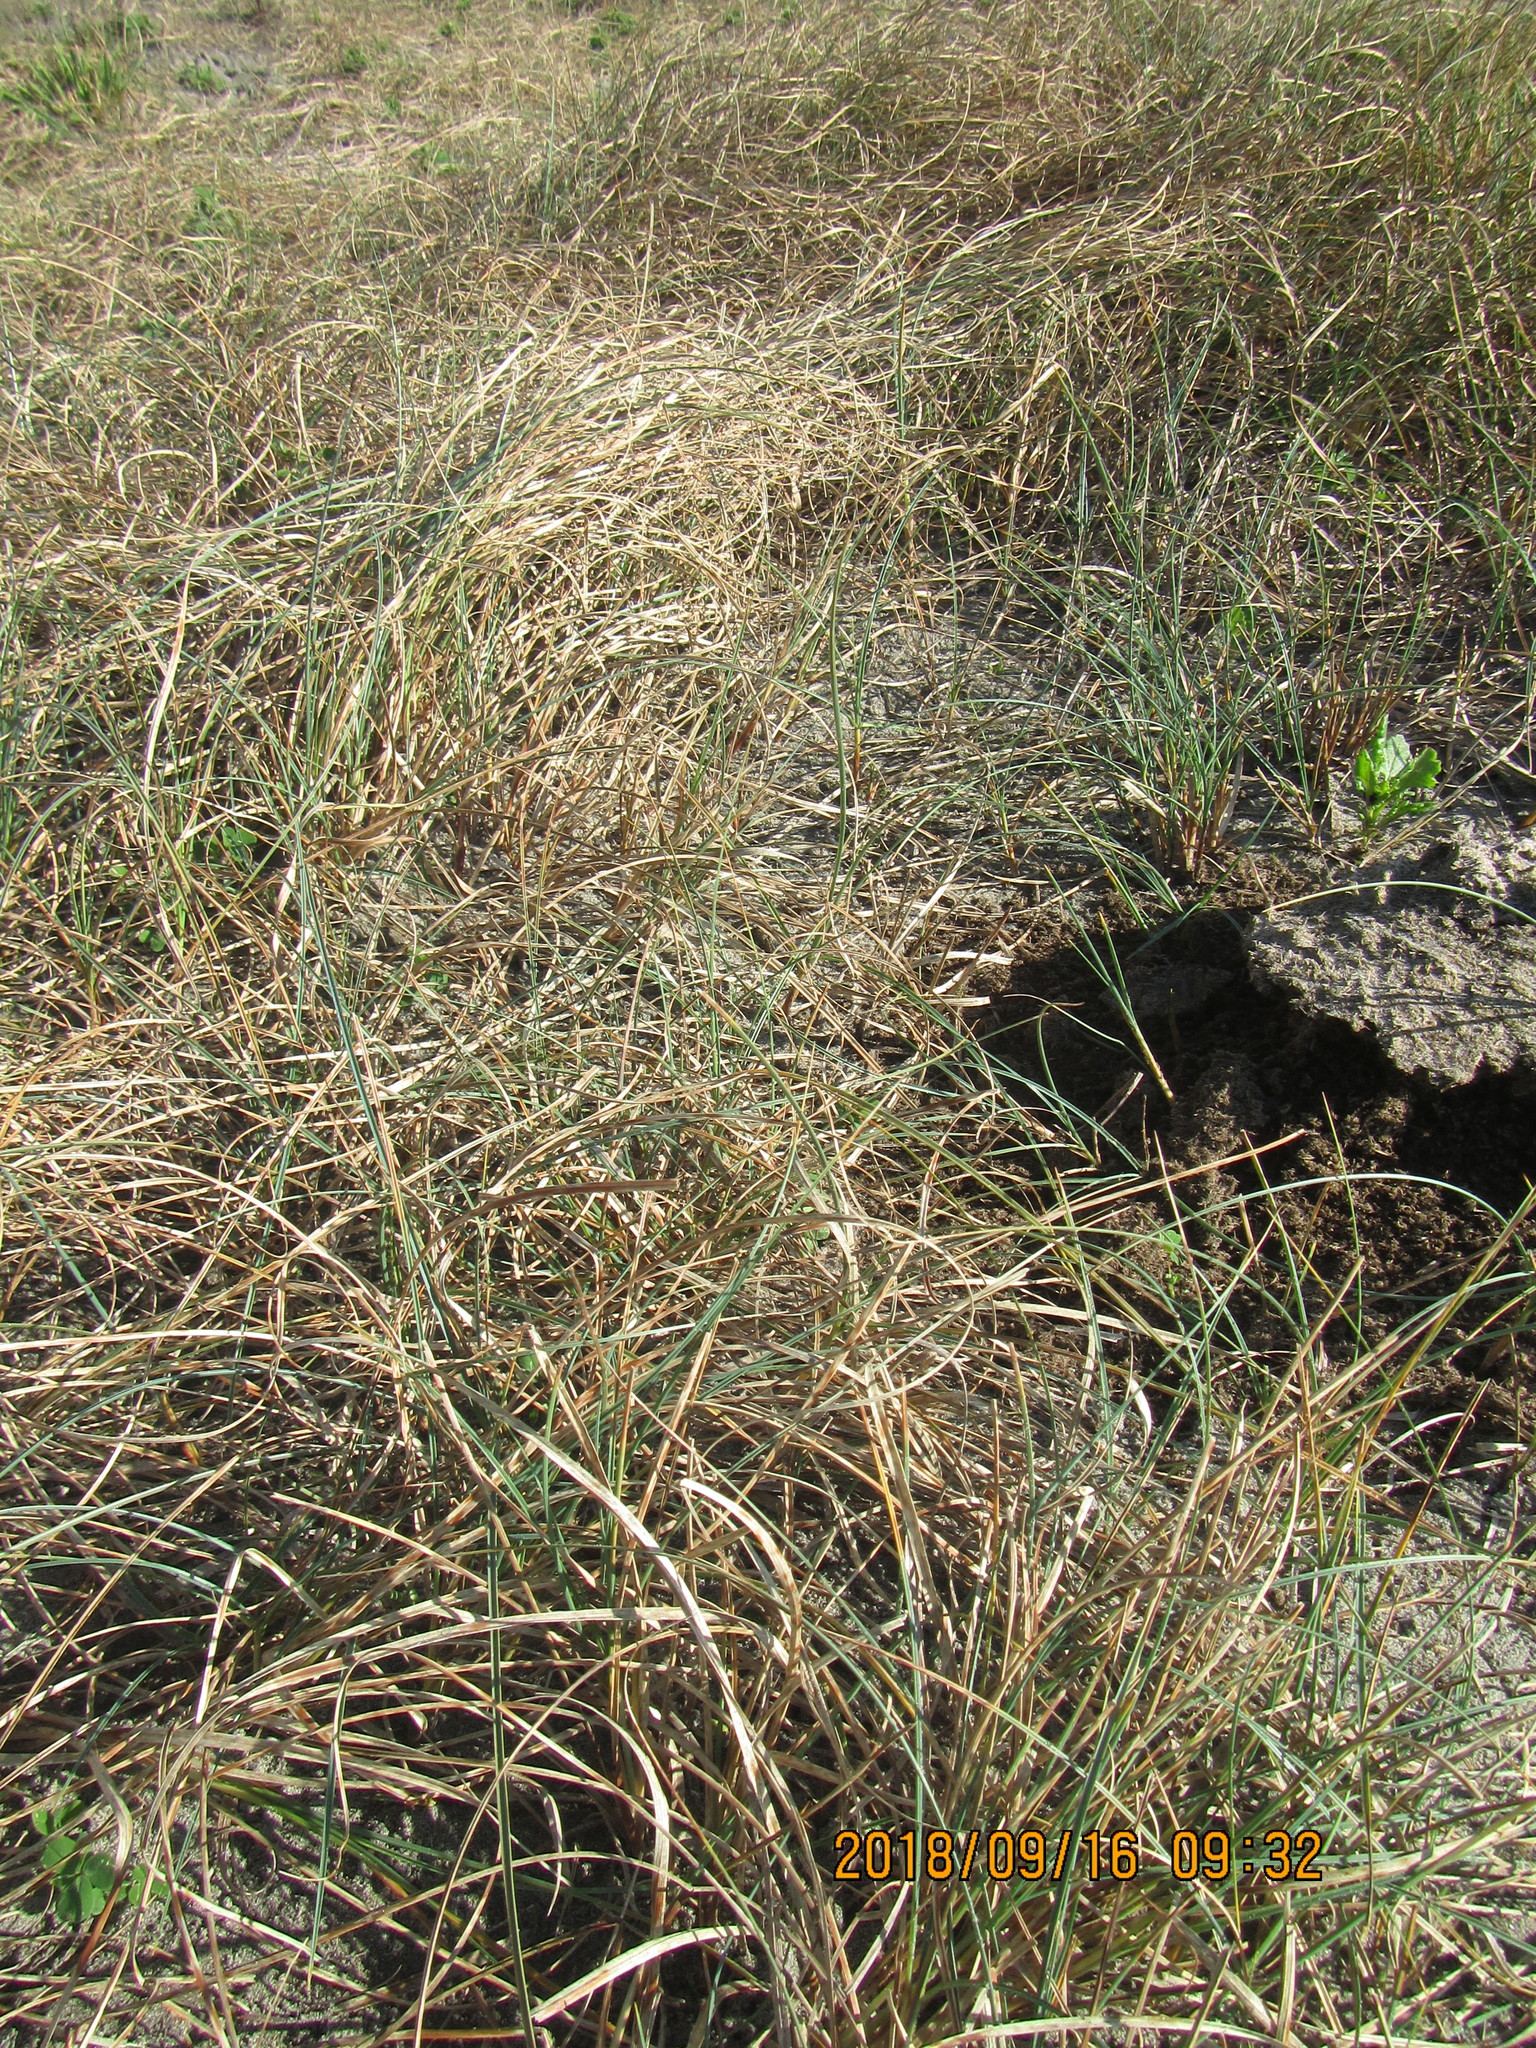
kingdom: Plantae
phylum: Tracheophyta
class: Liliopsida
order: Poales
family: Cyperaceae
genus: Carex
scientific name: Carex pumila
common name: Dwarf sedge
